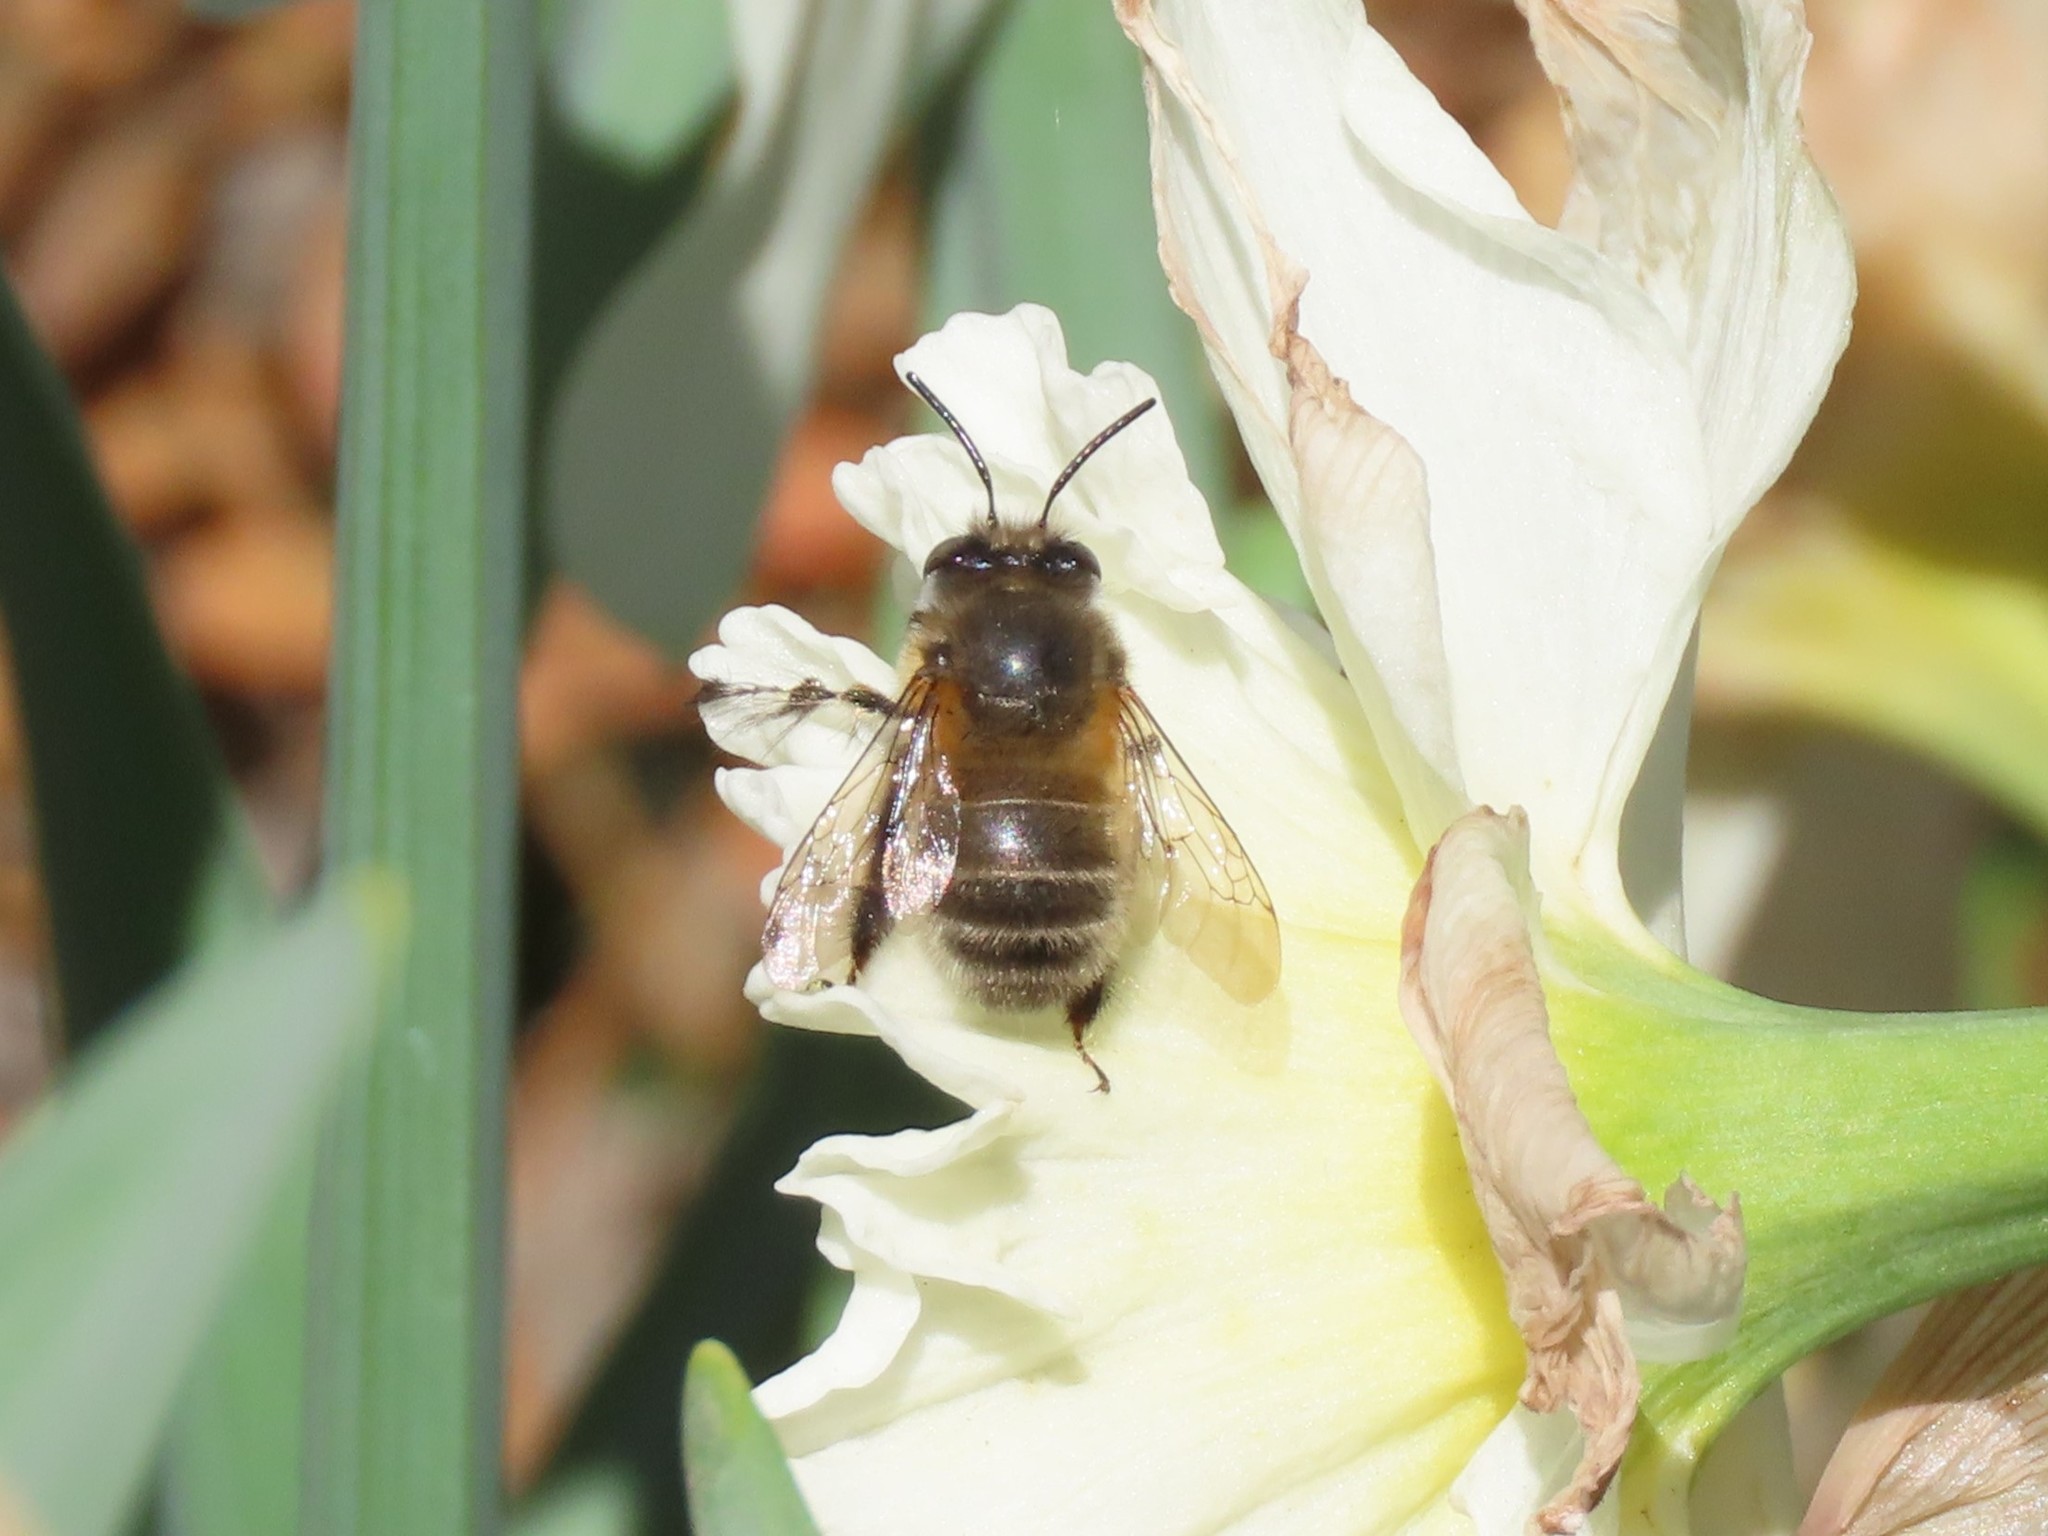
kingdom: Animalia
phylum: Arthropoda
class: Insecta
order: Hymenoptera
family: Apidae
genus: Anthophora
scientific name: Anthophora plumipes
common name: Hairy-footed flower bee
